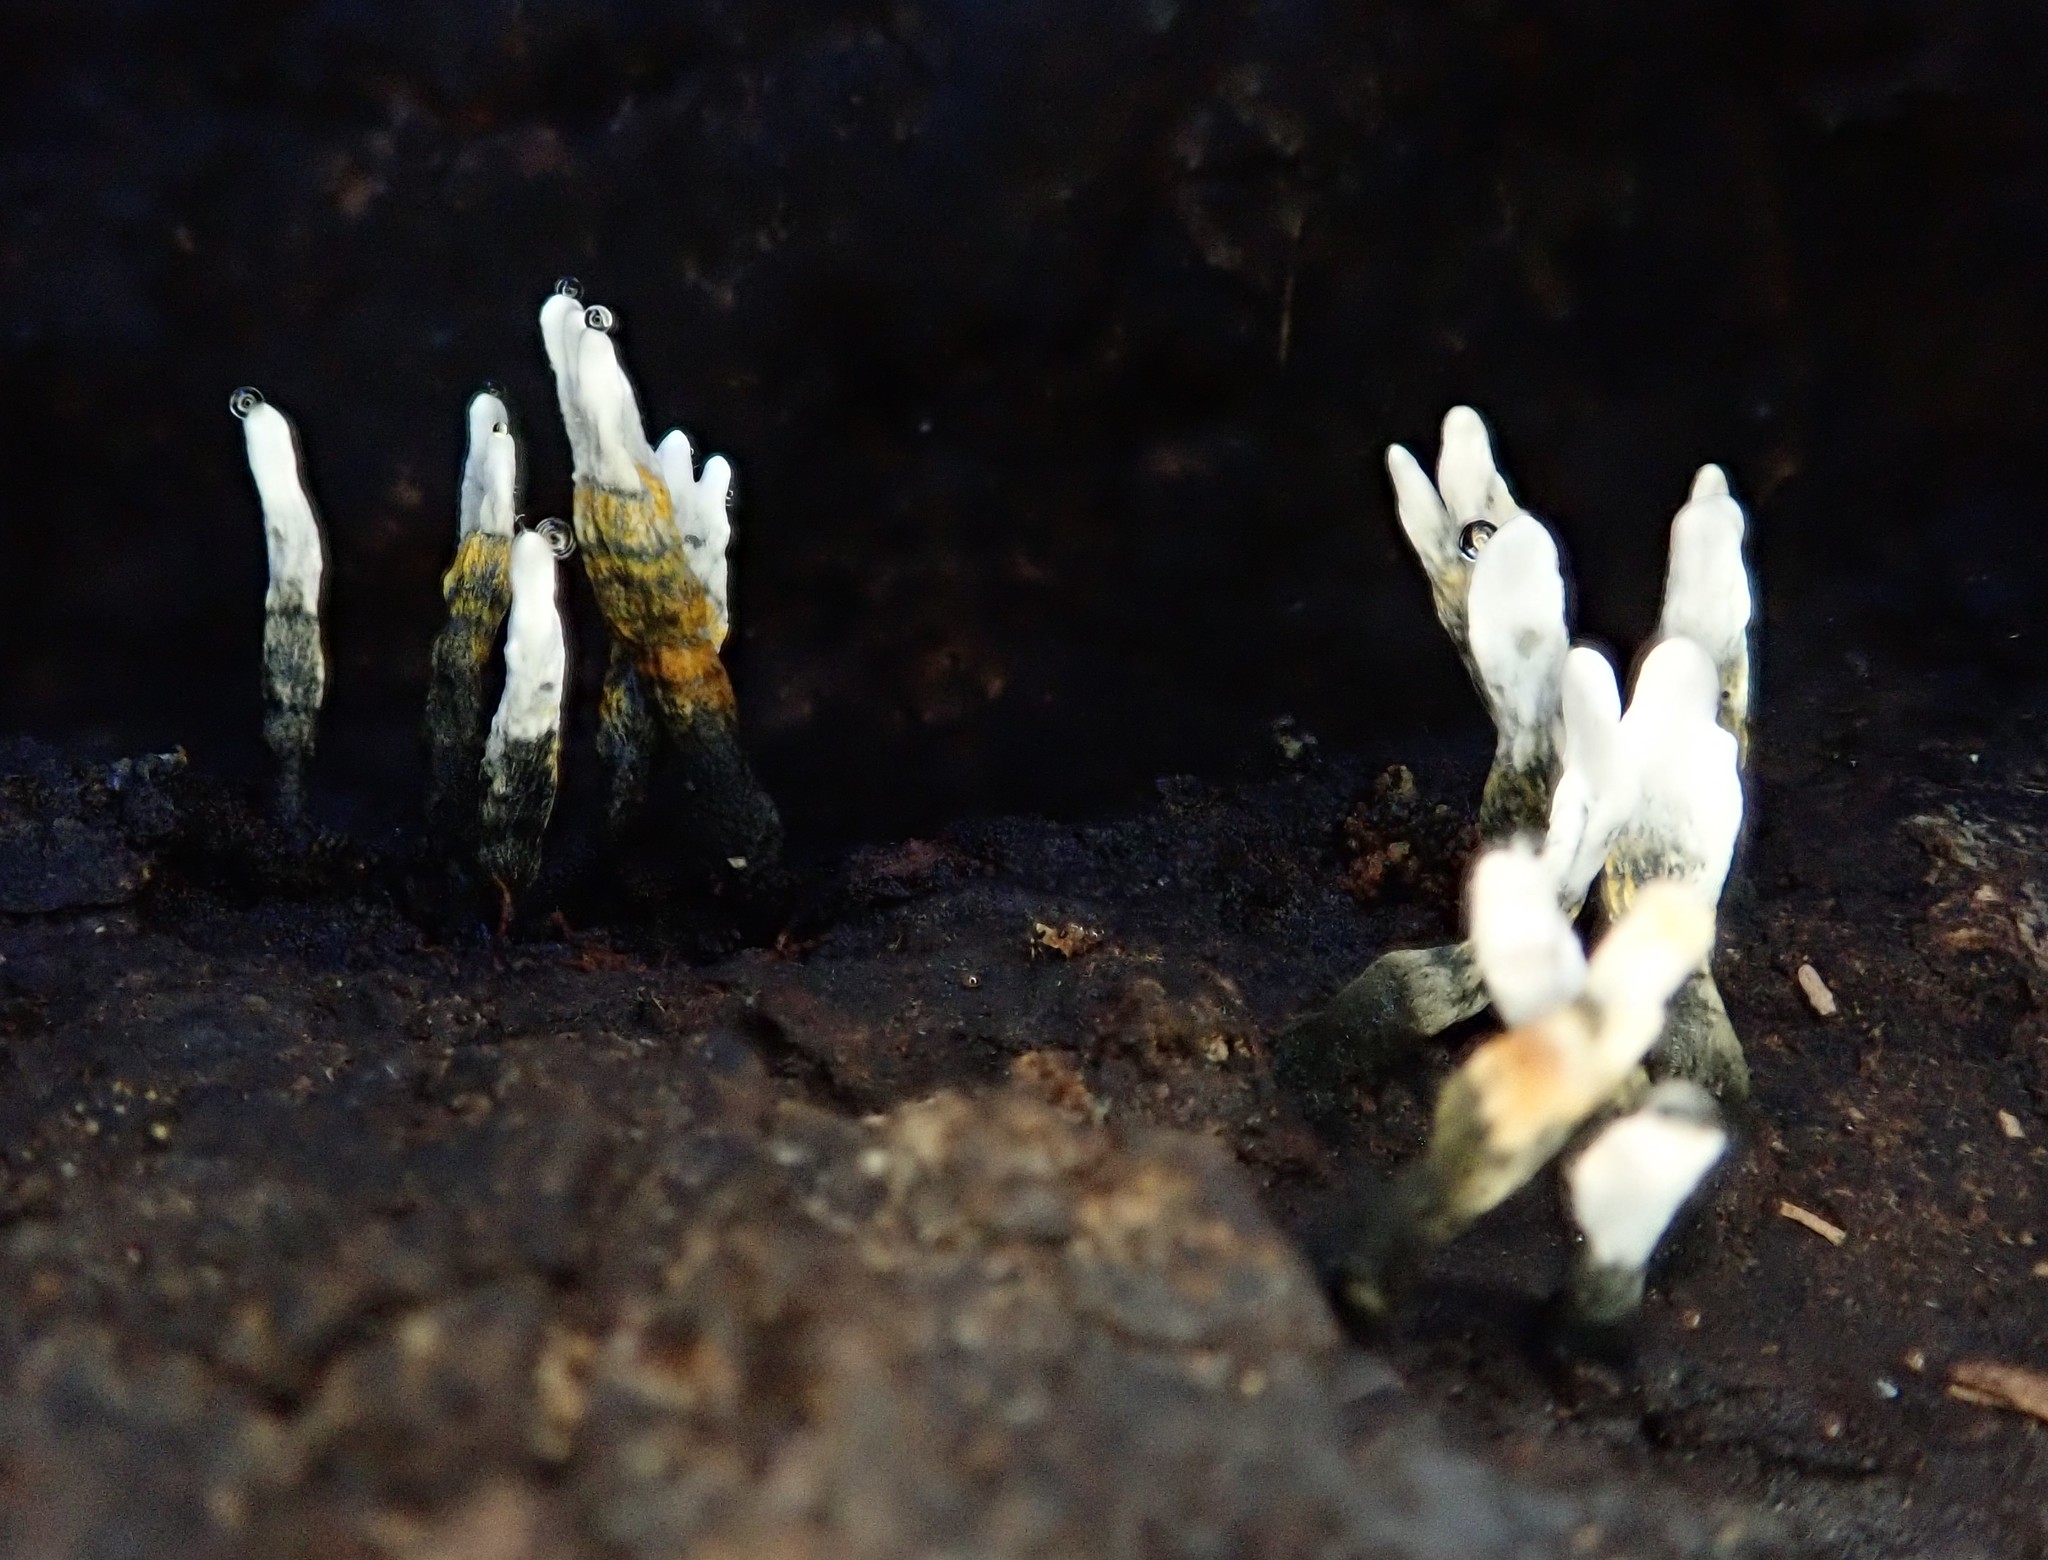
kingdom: Fungi
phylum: Ascomycota
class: Sordariomycetes
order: Xylariales
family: Xylariaceae
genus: Xylaria
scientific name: Xylaria hypoxylon
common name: Candle-snuff fungus
